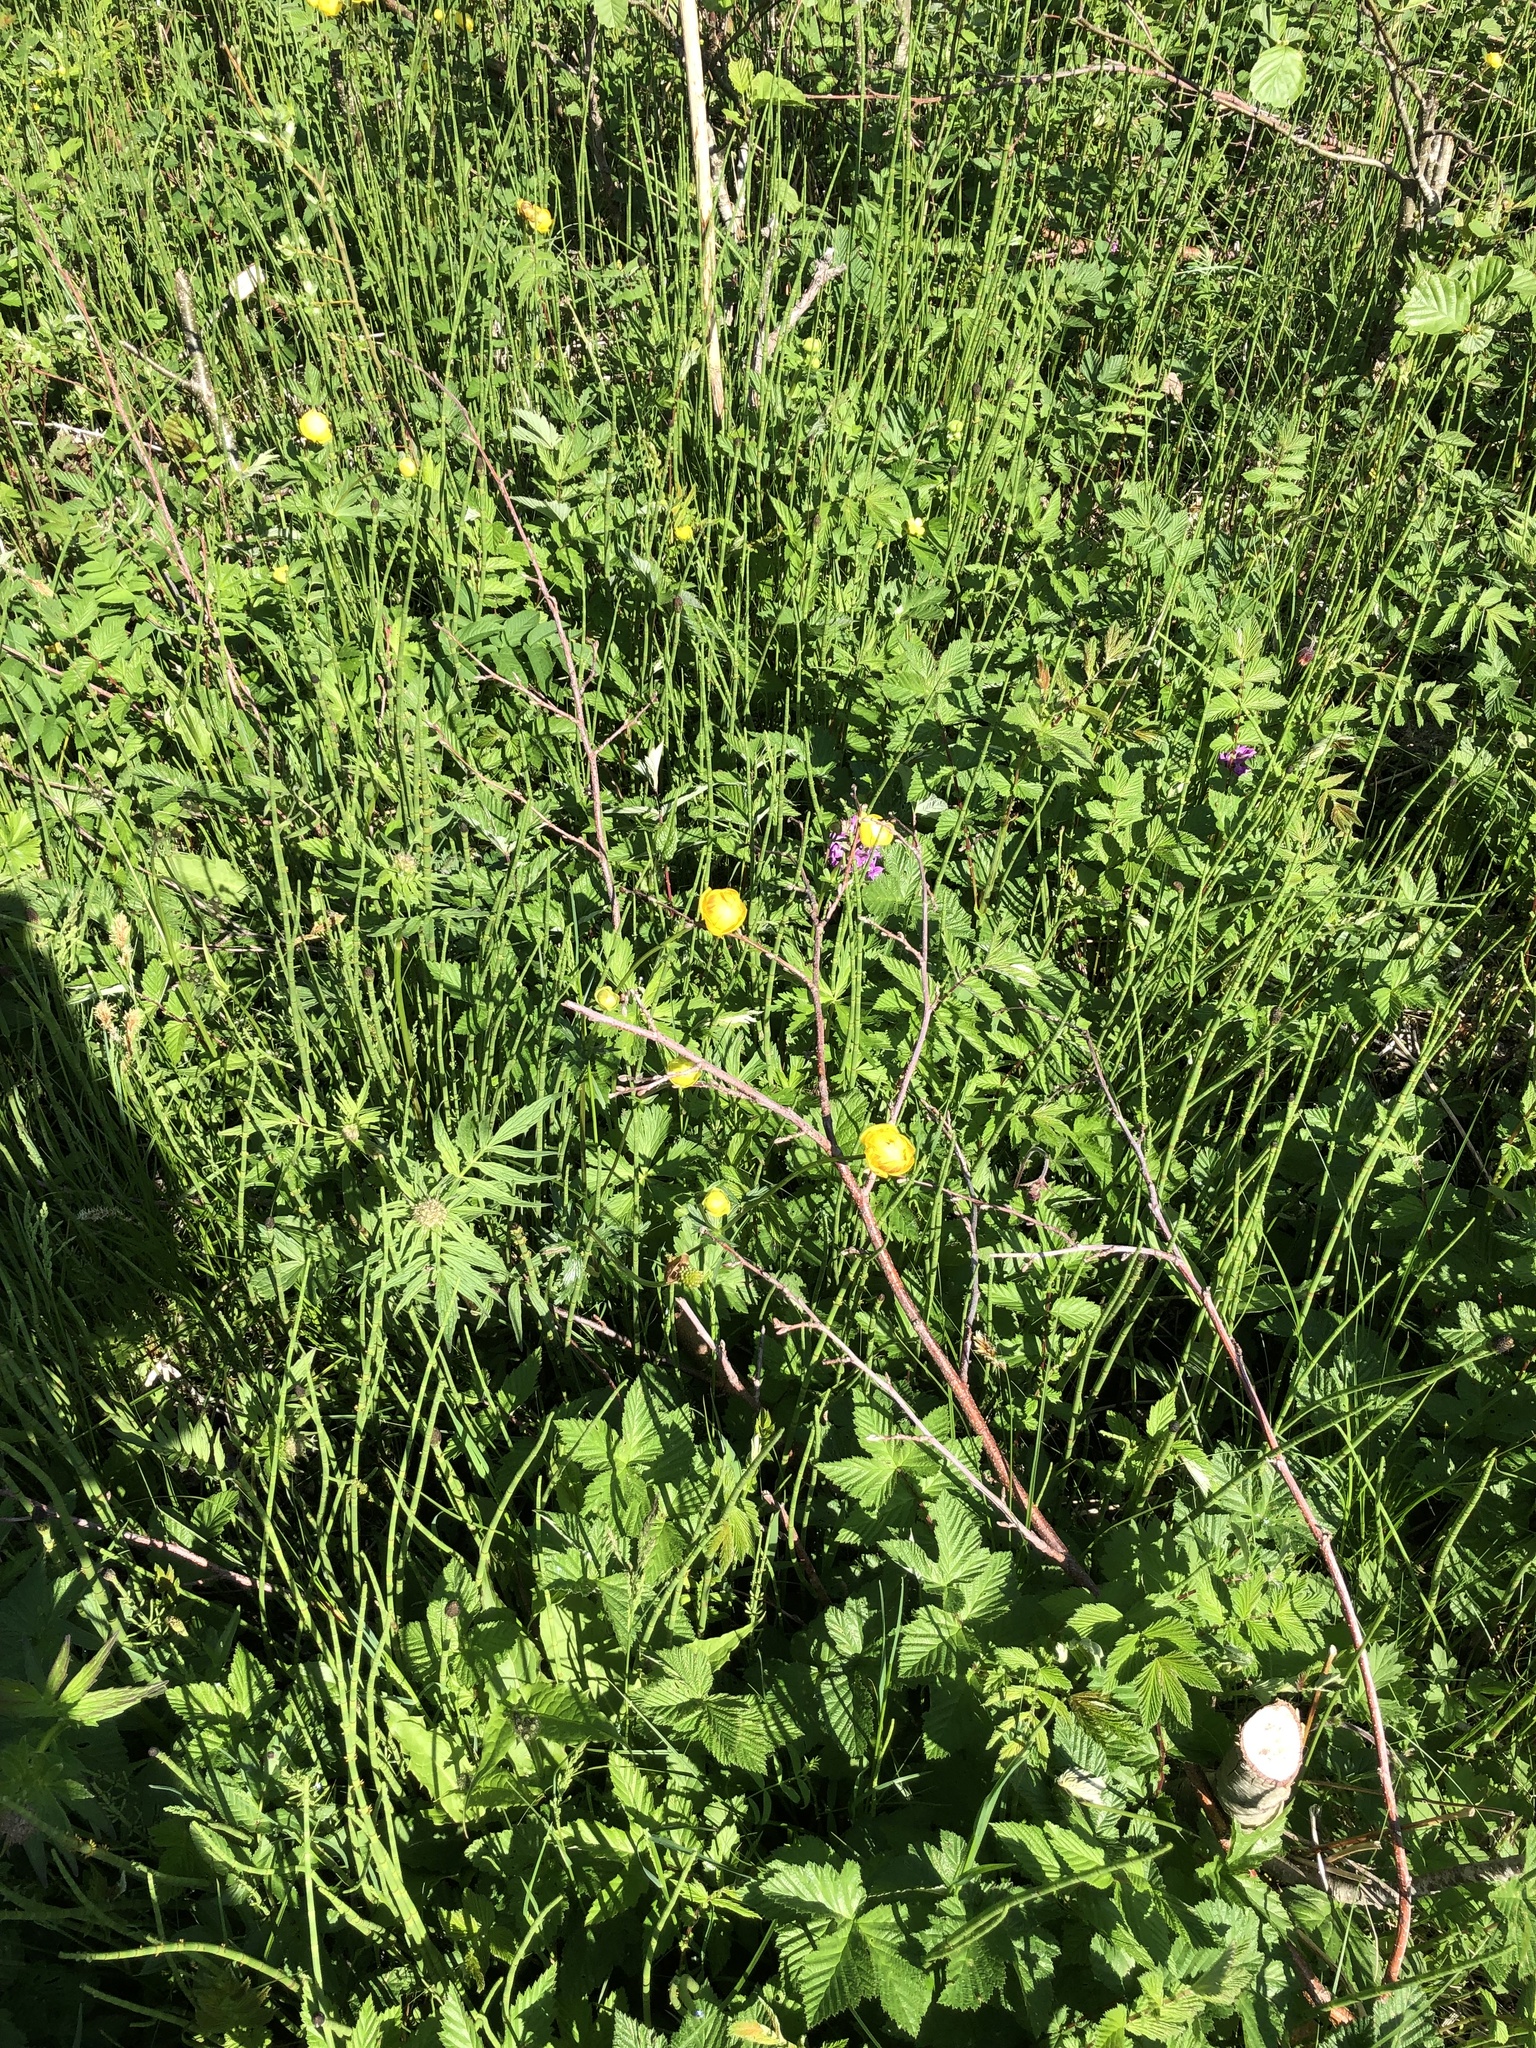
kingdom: Plantae
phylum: Tracheophyta
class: Magnoliopsida
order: Ranunculales
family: Ranunculaceae
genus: Trollius
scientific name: Trollius europaeus
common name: European globeflower
